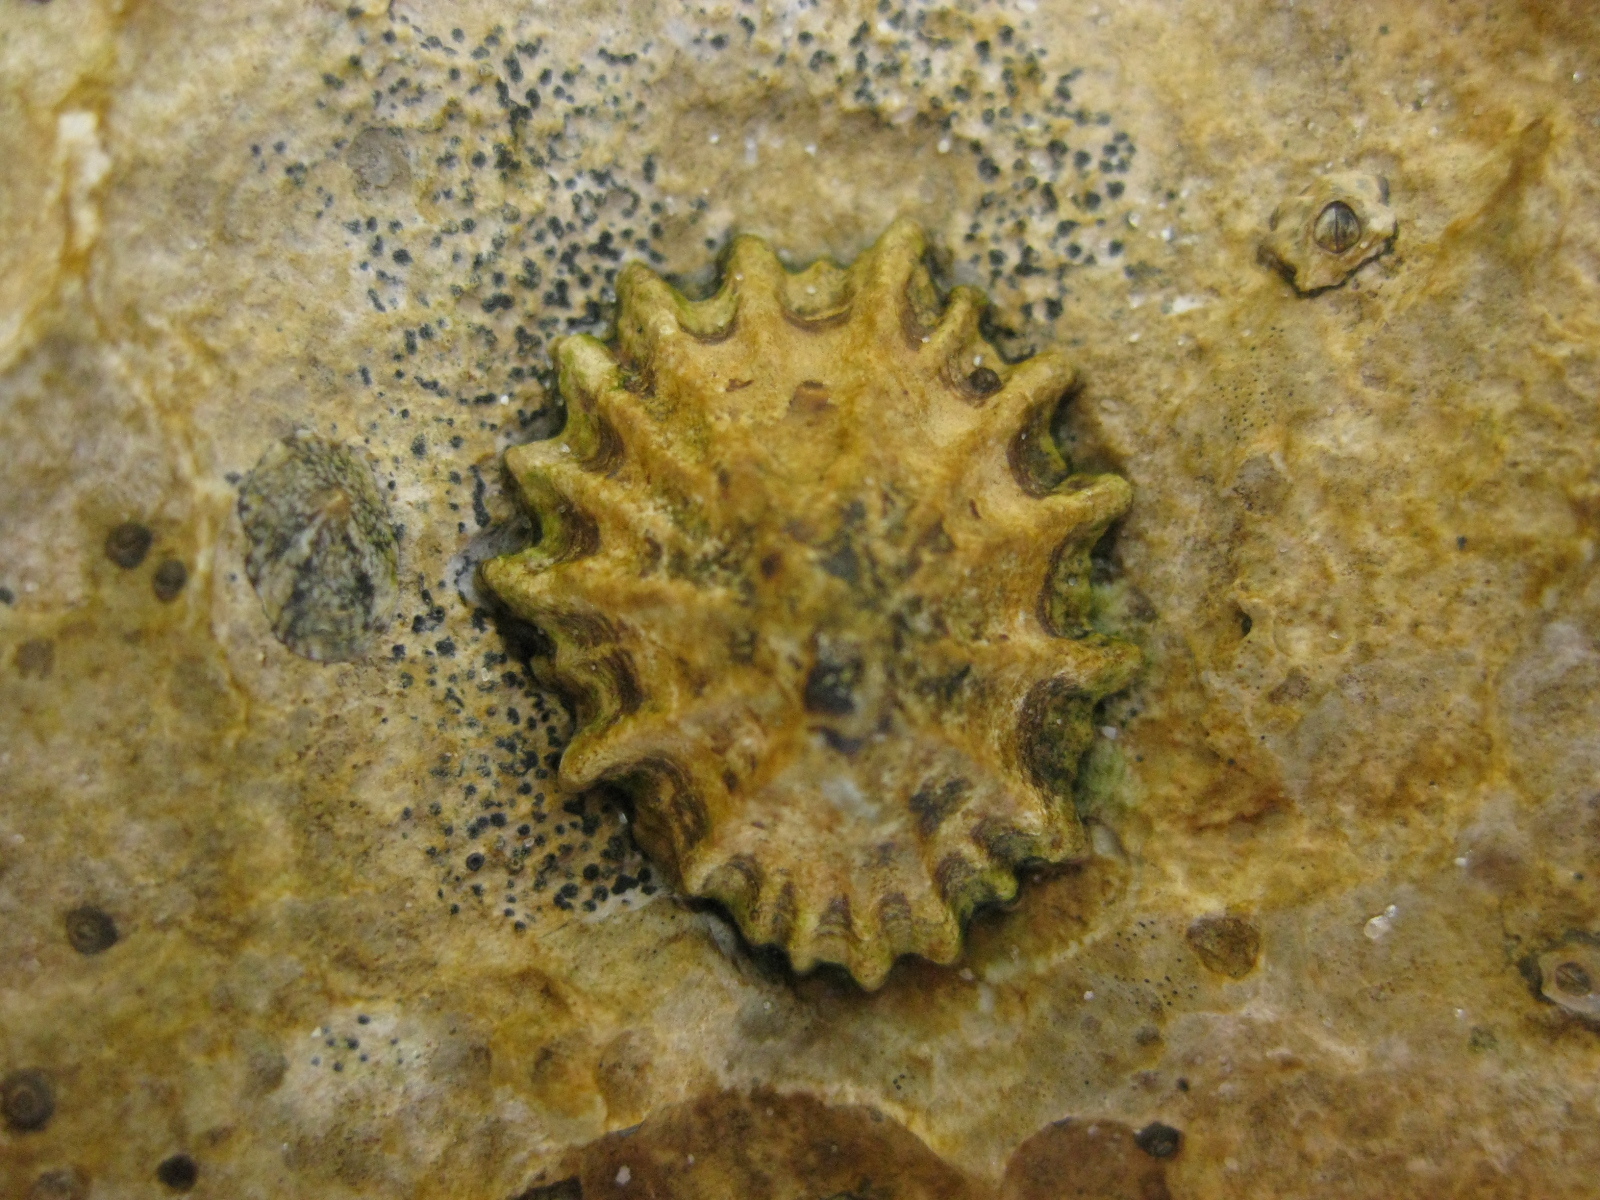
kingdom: Animalia
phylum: Mollusca
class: Gastropoda
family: Lottiidae
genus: Patelloida
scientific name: Patelloida corticata
